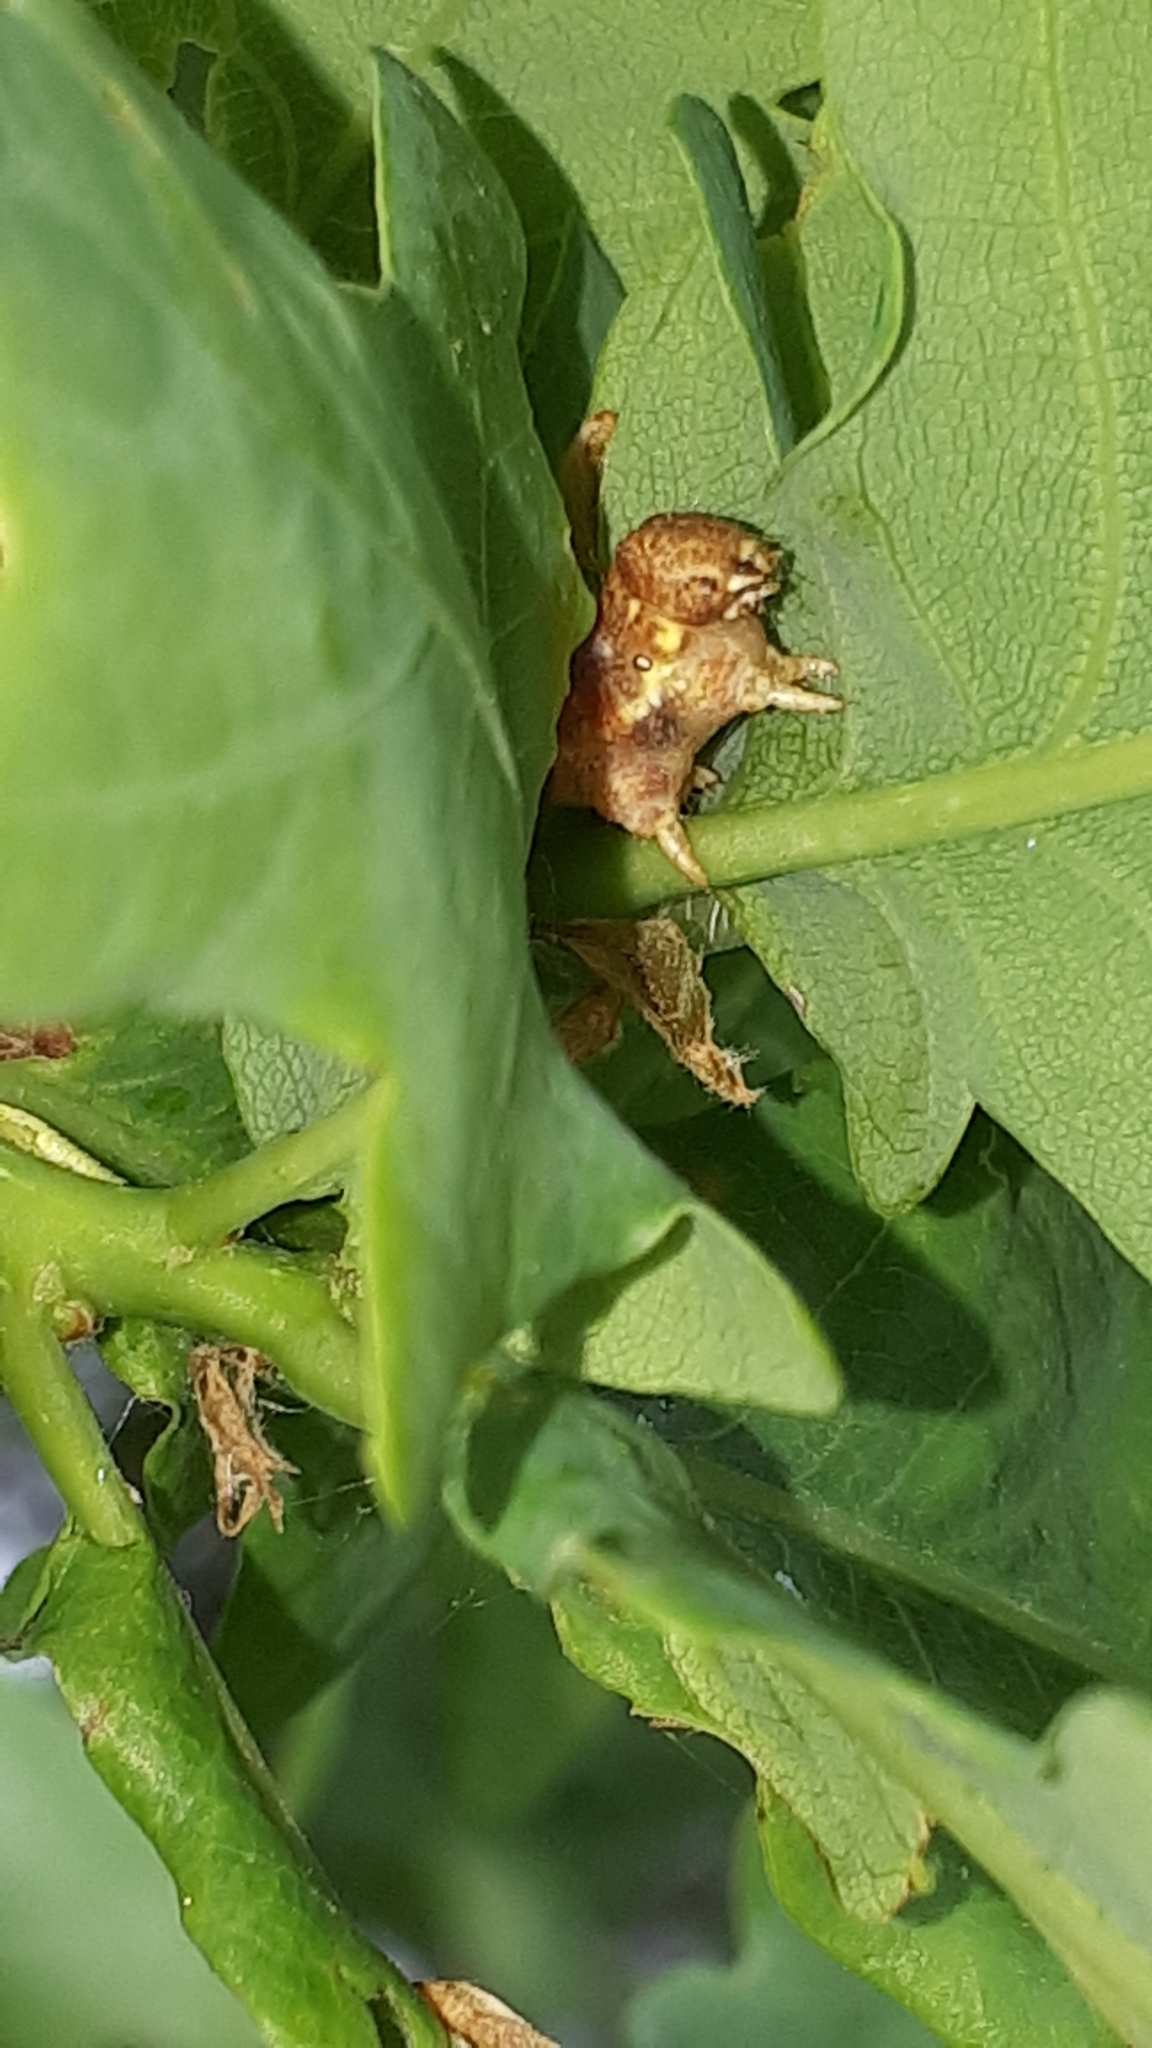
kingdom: Animalia
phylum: Arthropoda
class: Insecta
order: Lepidoptera
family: Geometridae
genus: Erannis
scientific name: Erannis defoliaria
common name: Mottled umber
